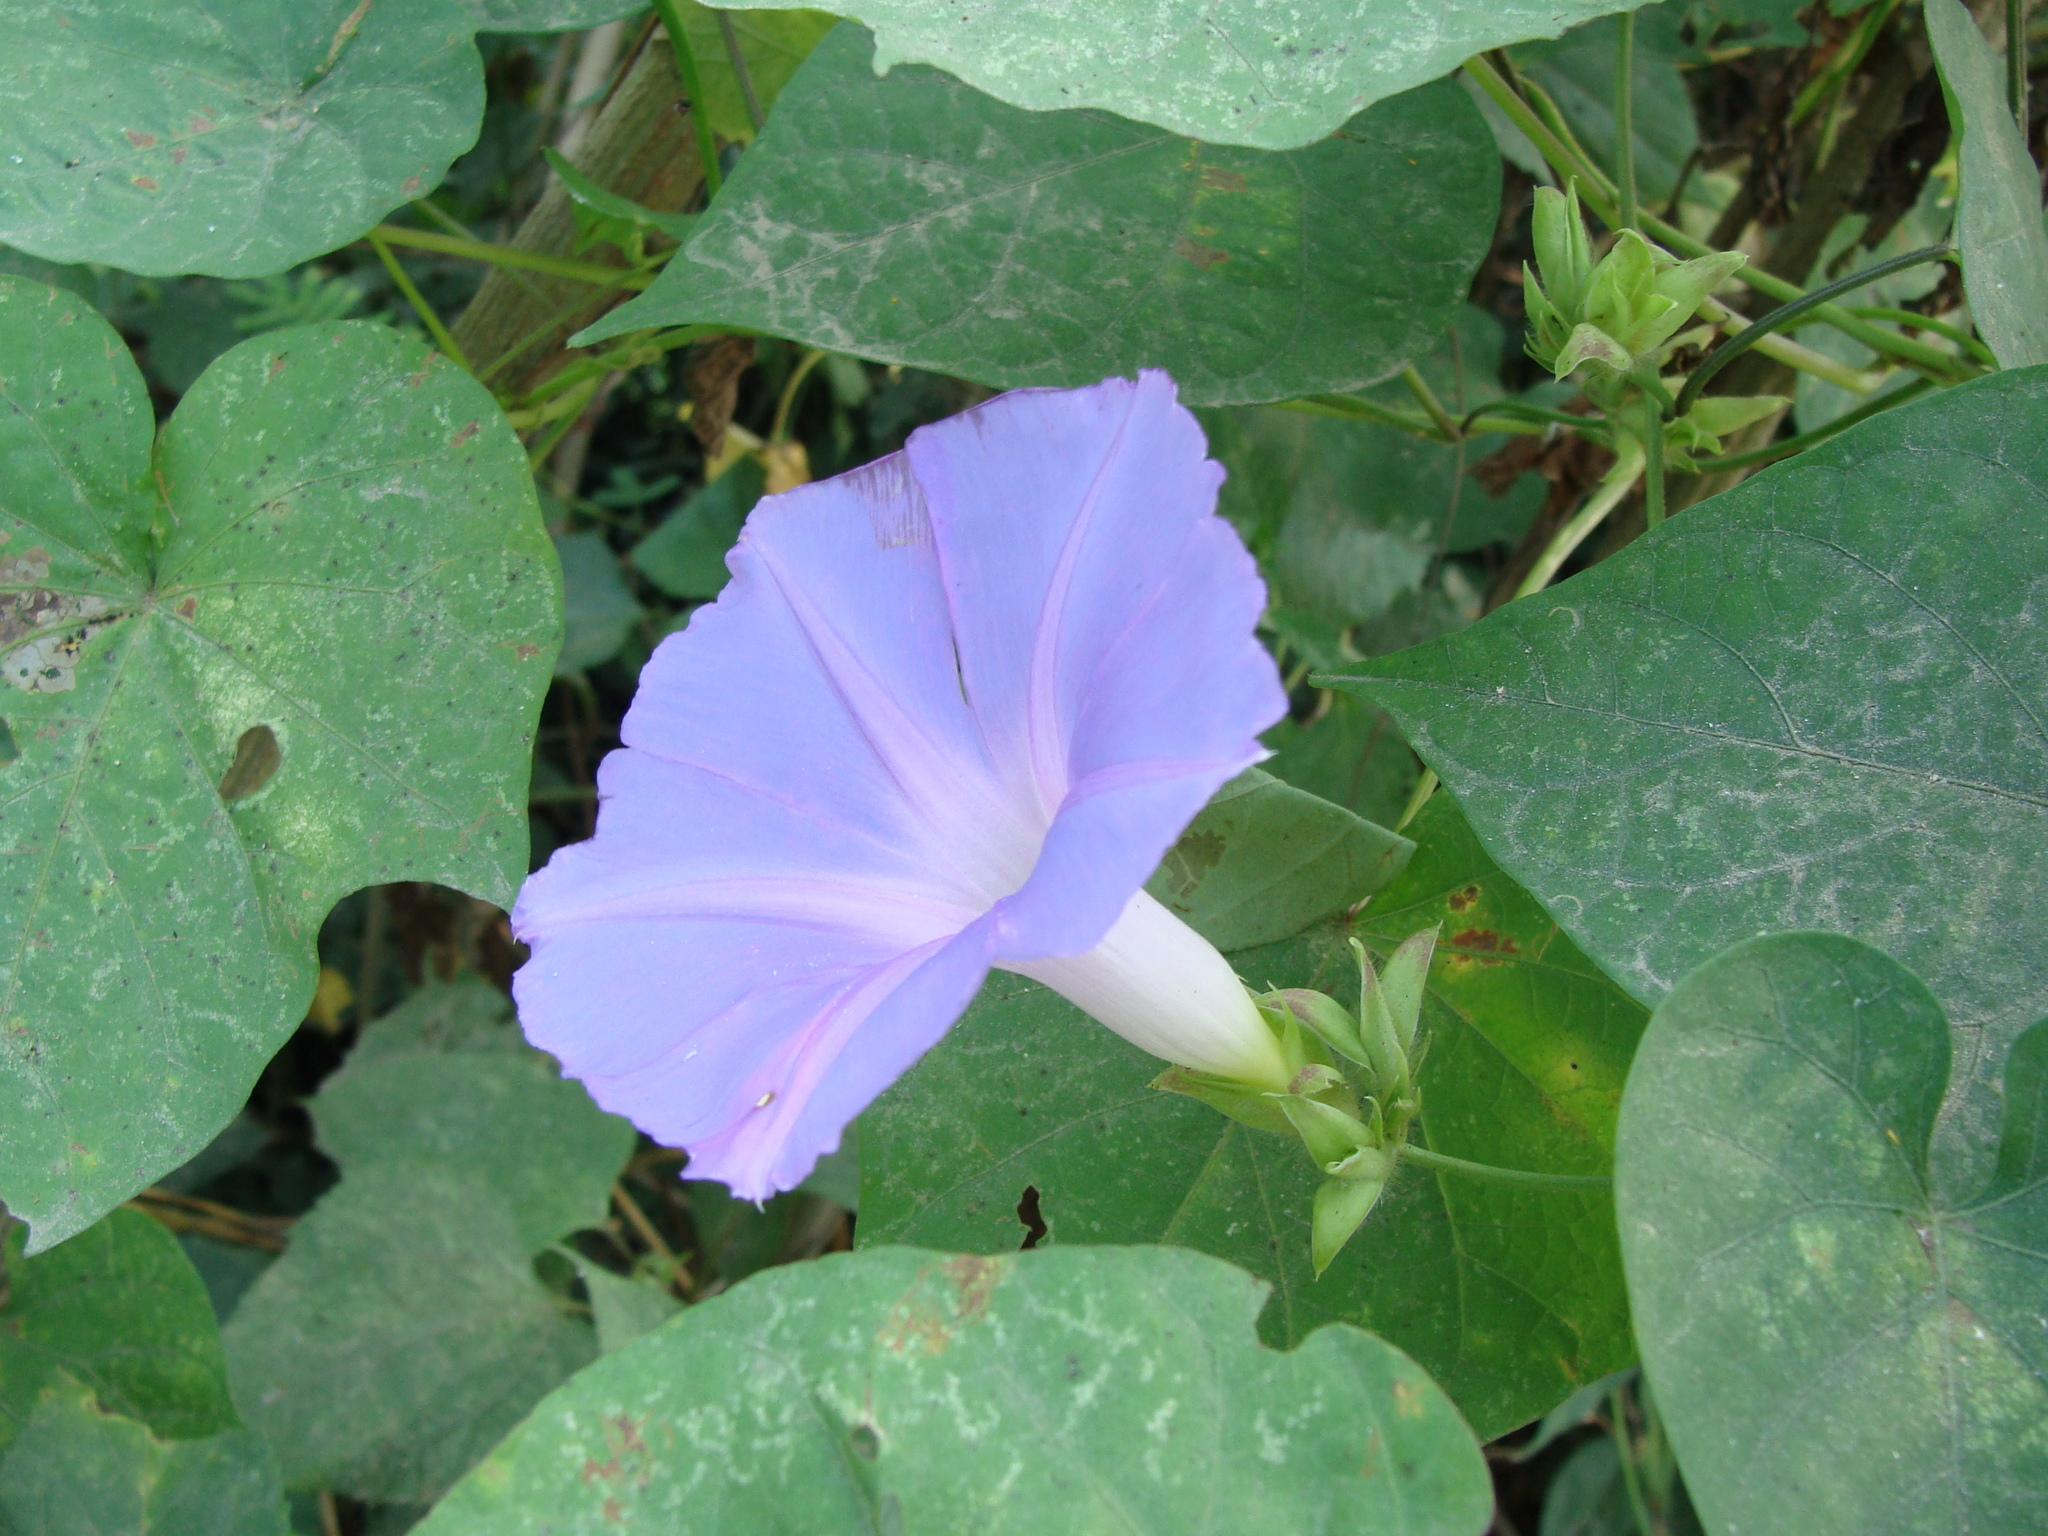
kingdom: Plantae
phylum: Tracheophyta
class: Magnoliopsida
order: Solanales
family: Convolvulaceae
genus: Ipomoea
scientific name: Ipomoea mitchelliae
